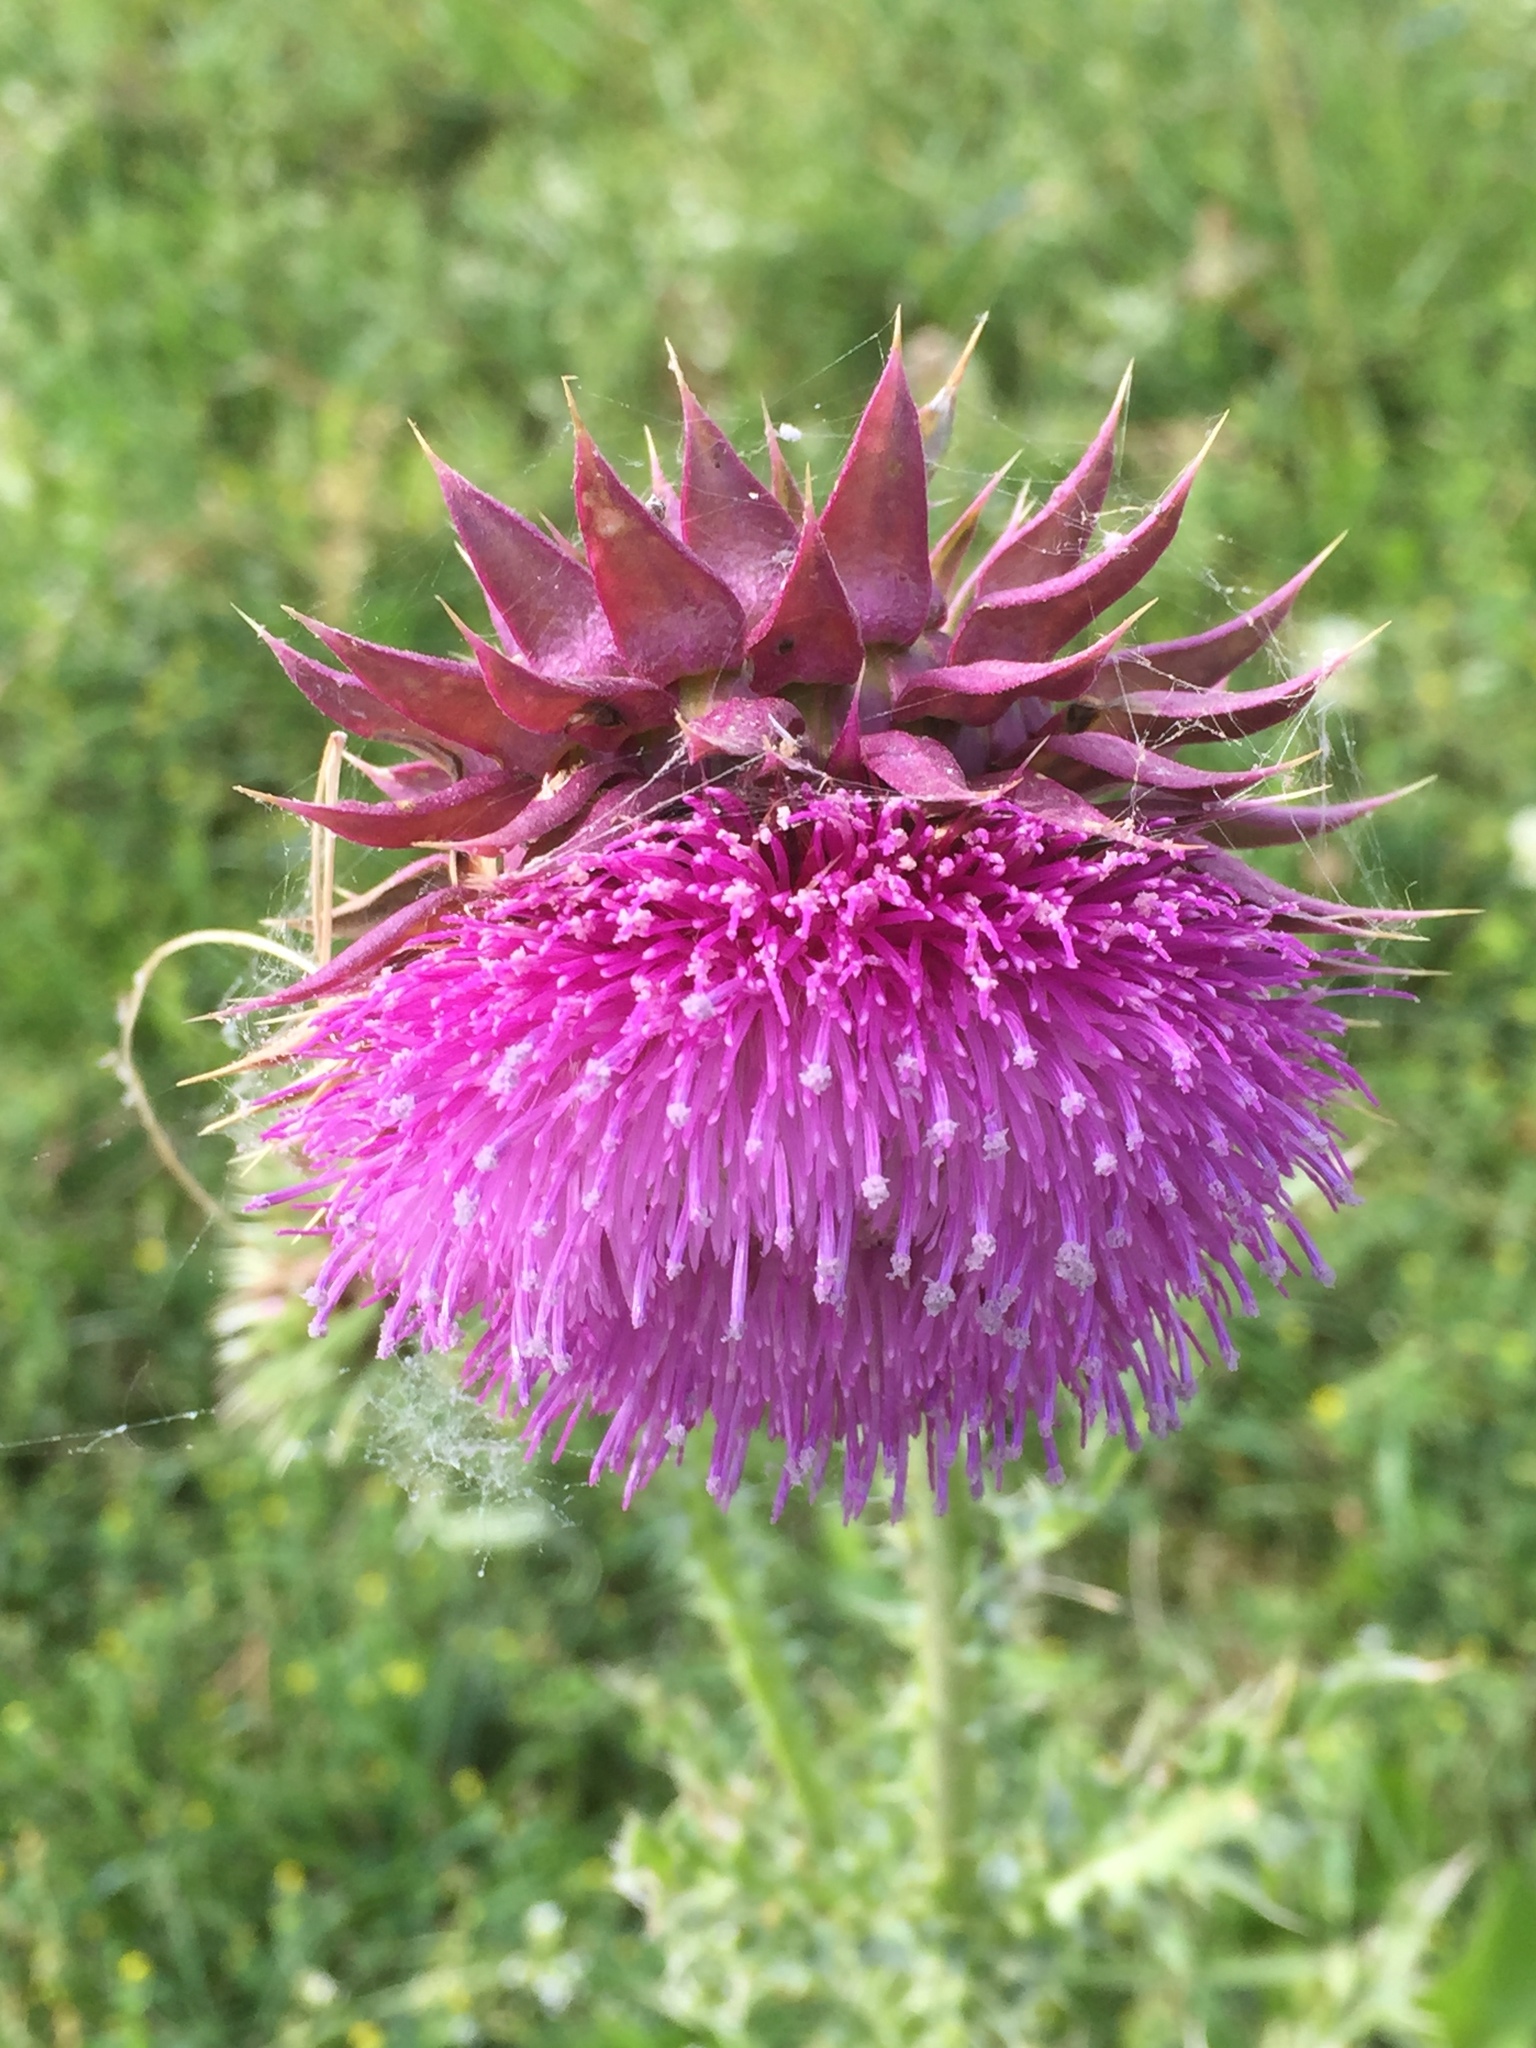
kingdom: Plantae
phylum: Tracheophyta
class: Magnoliopsida
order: Asterales
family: Asteraceae
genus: Carduus
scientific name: Carduus nutans
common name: Musk thistle
